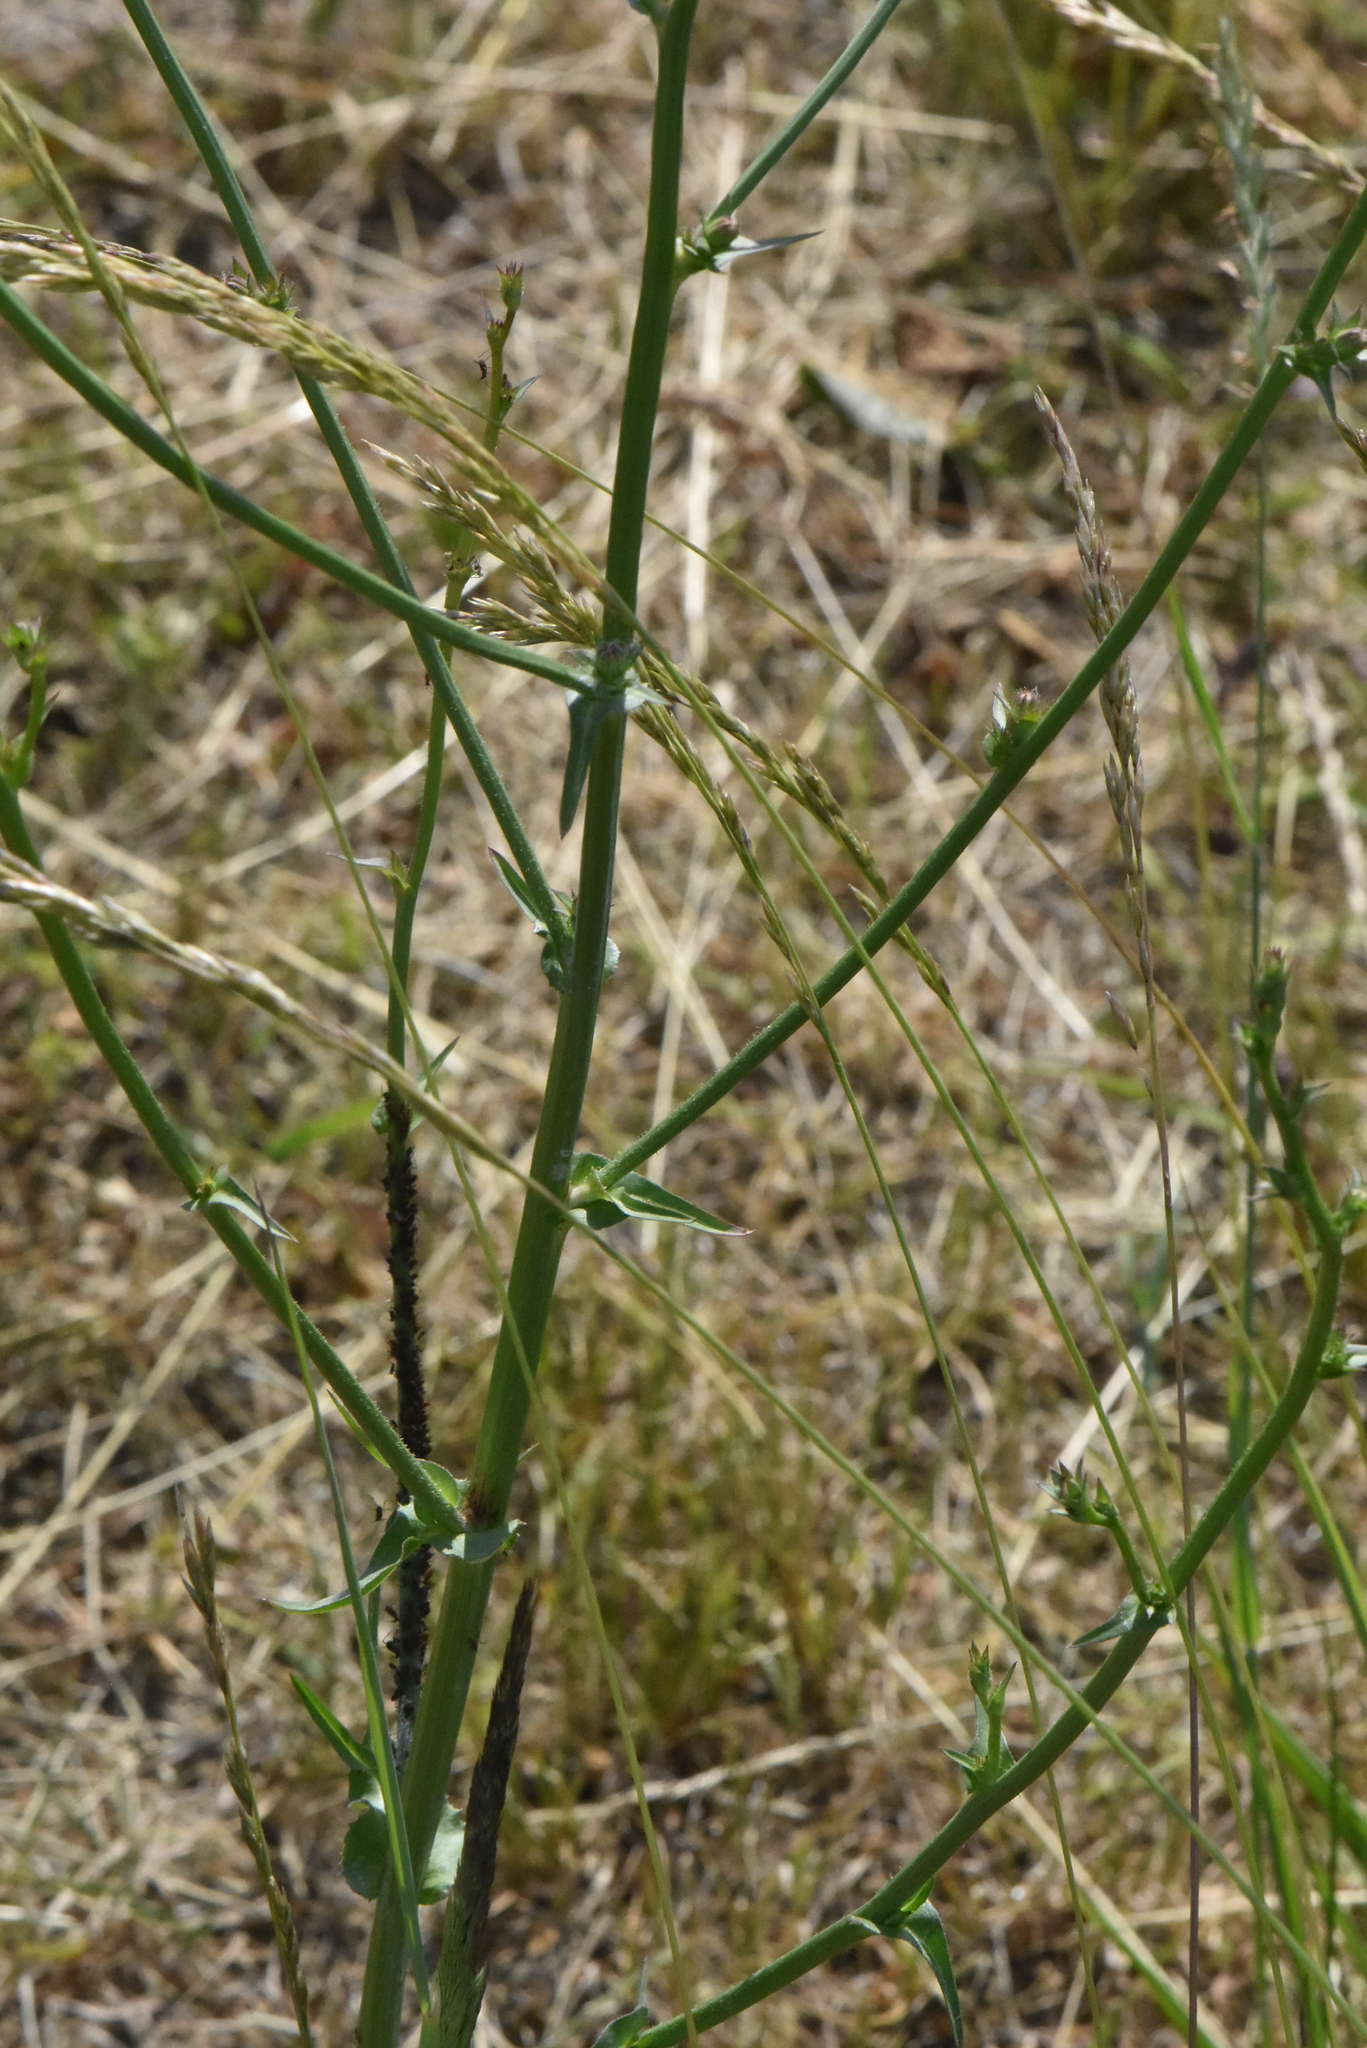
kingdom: Plantae
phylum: Tracheophyta
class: Magnoliopsida
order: Asterales
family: Asteraceae
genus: Cichorium
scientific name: Cichorium intybus
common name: Chicory
